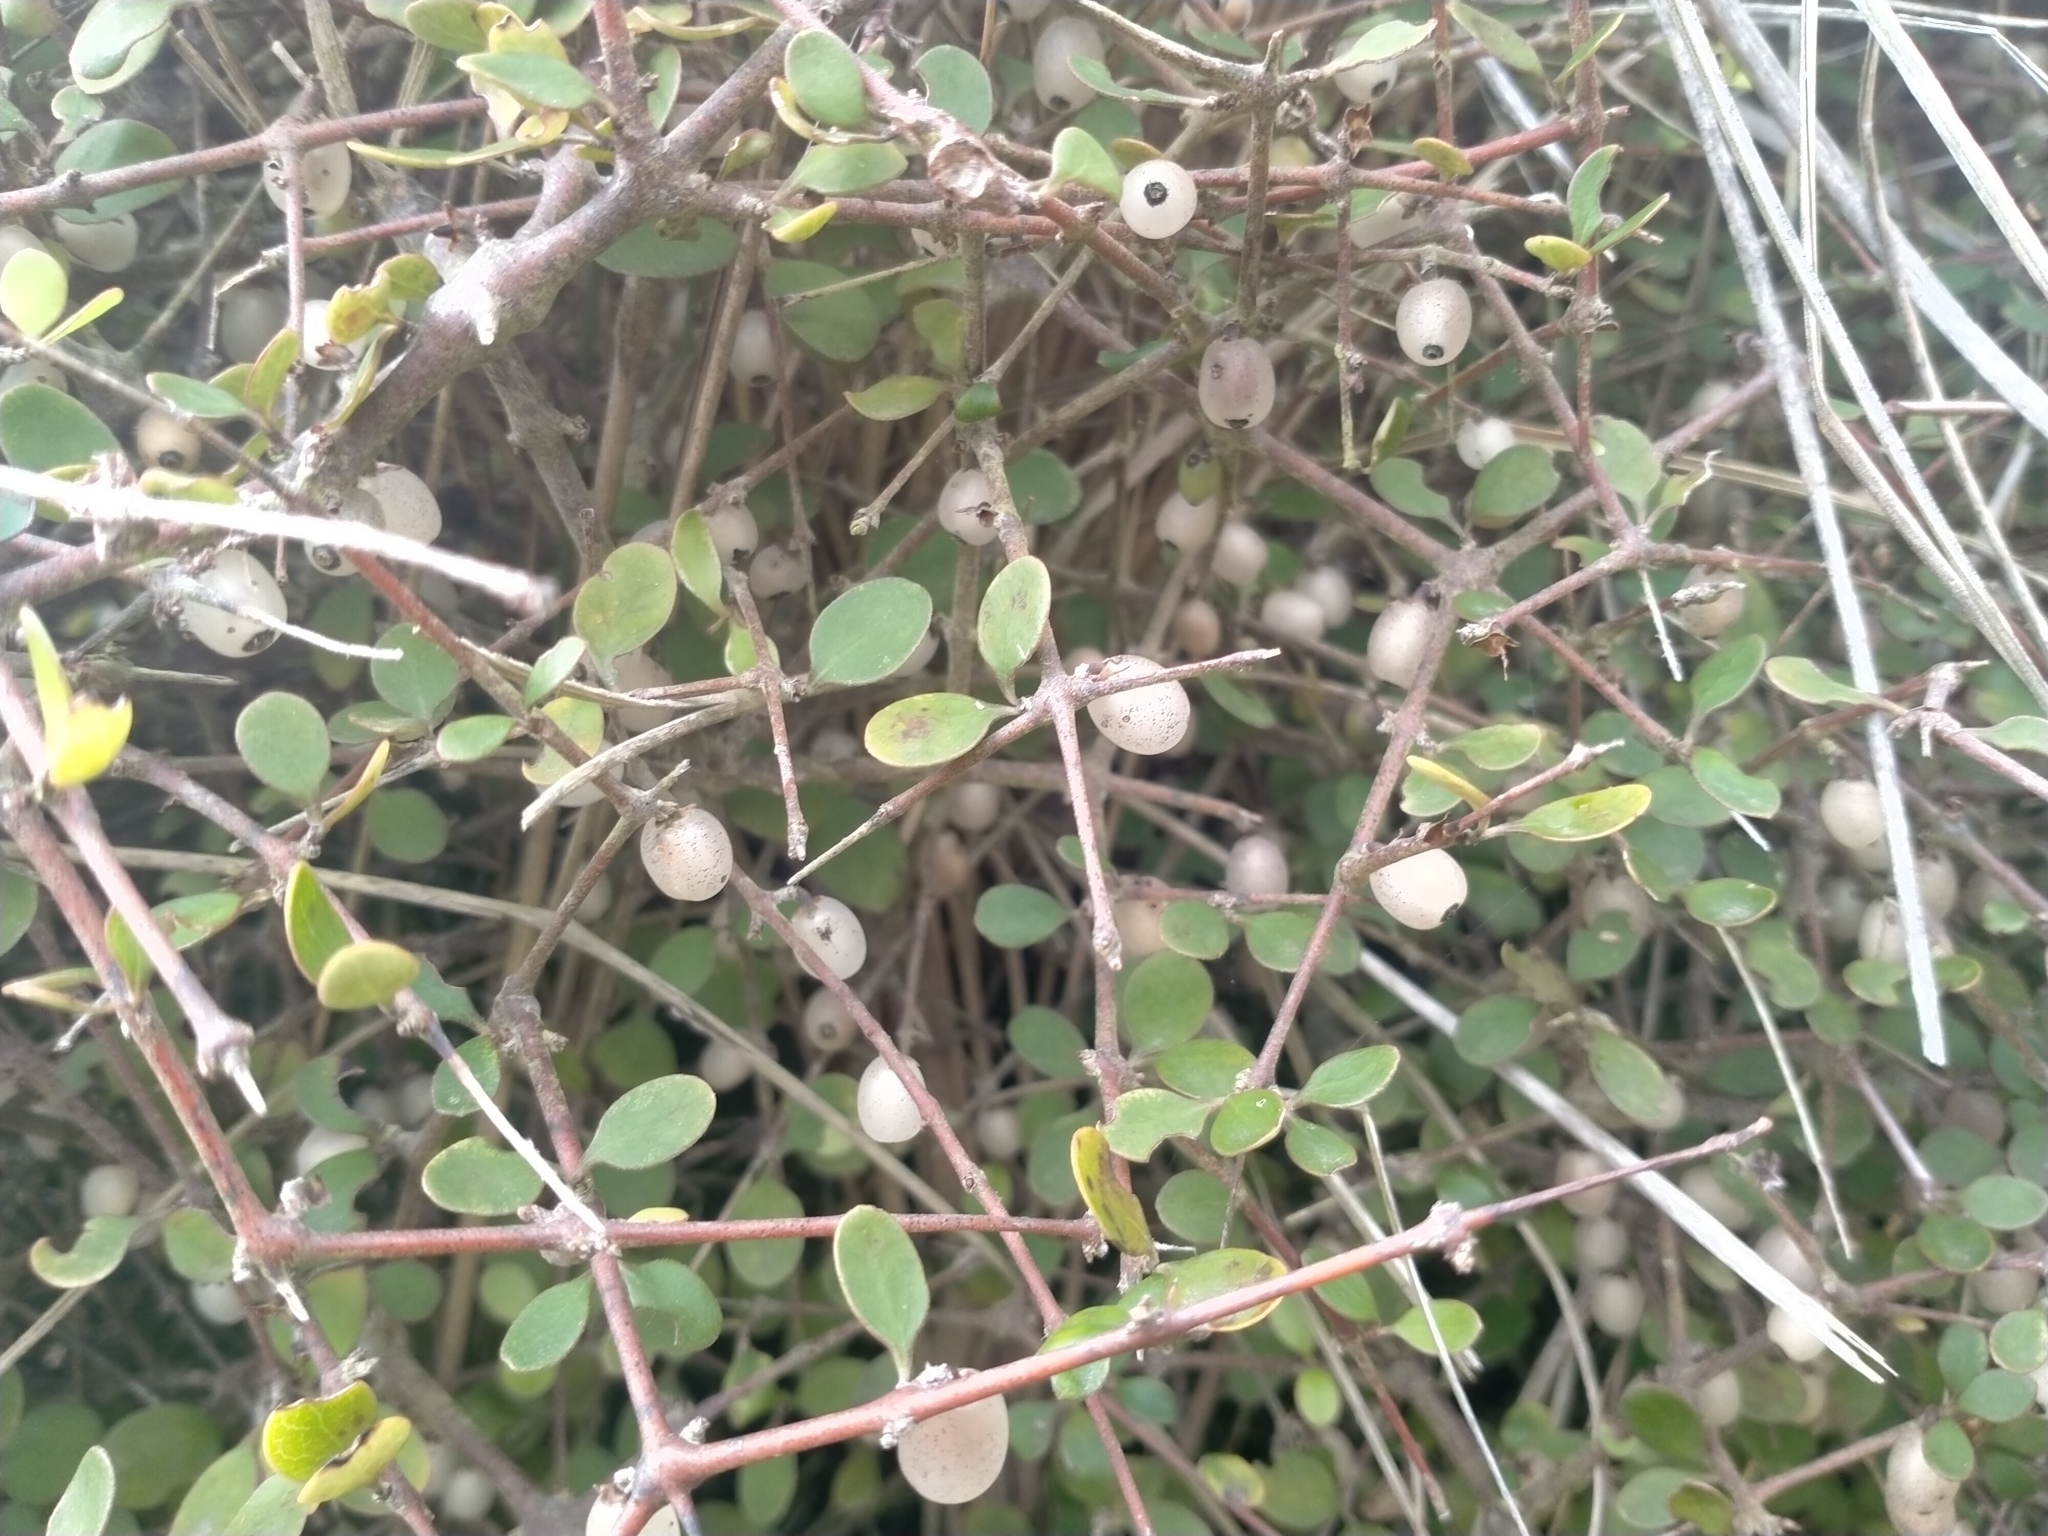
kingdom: Plantae
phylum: Tracheophyta
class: Magnoliopsida
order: Gentianales
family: Rubiaceae
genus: Coprosma
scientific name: Coprosma crassifolia
